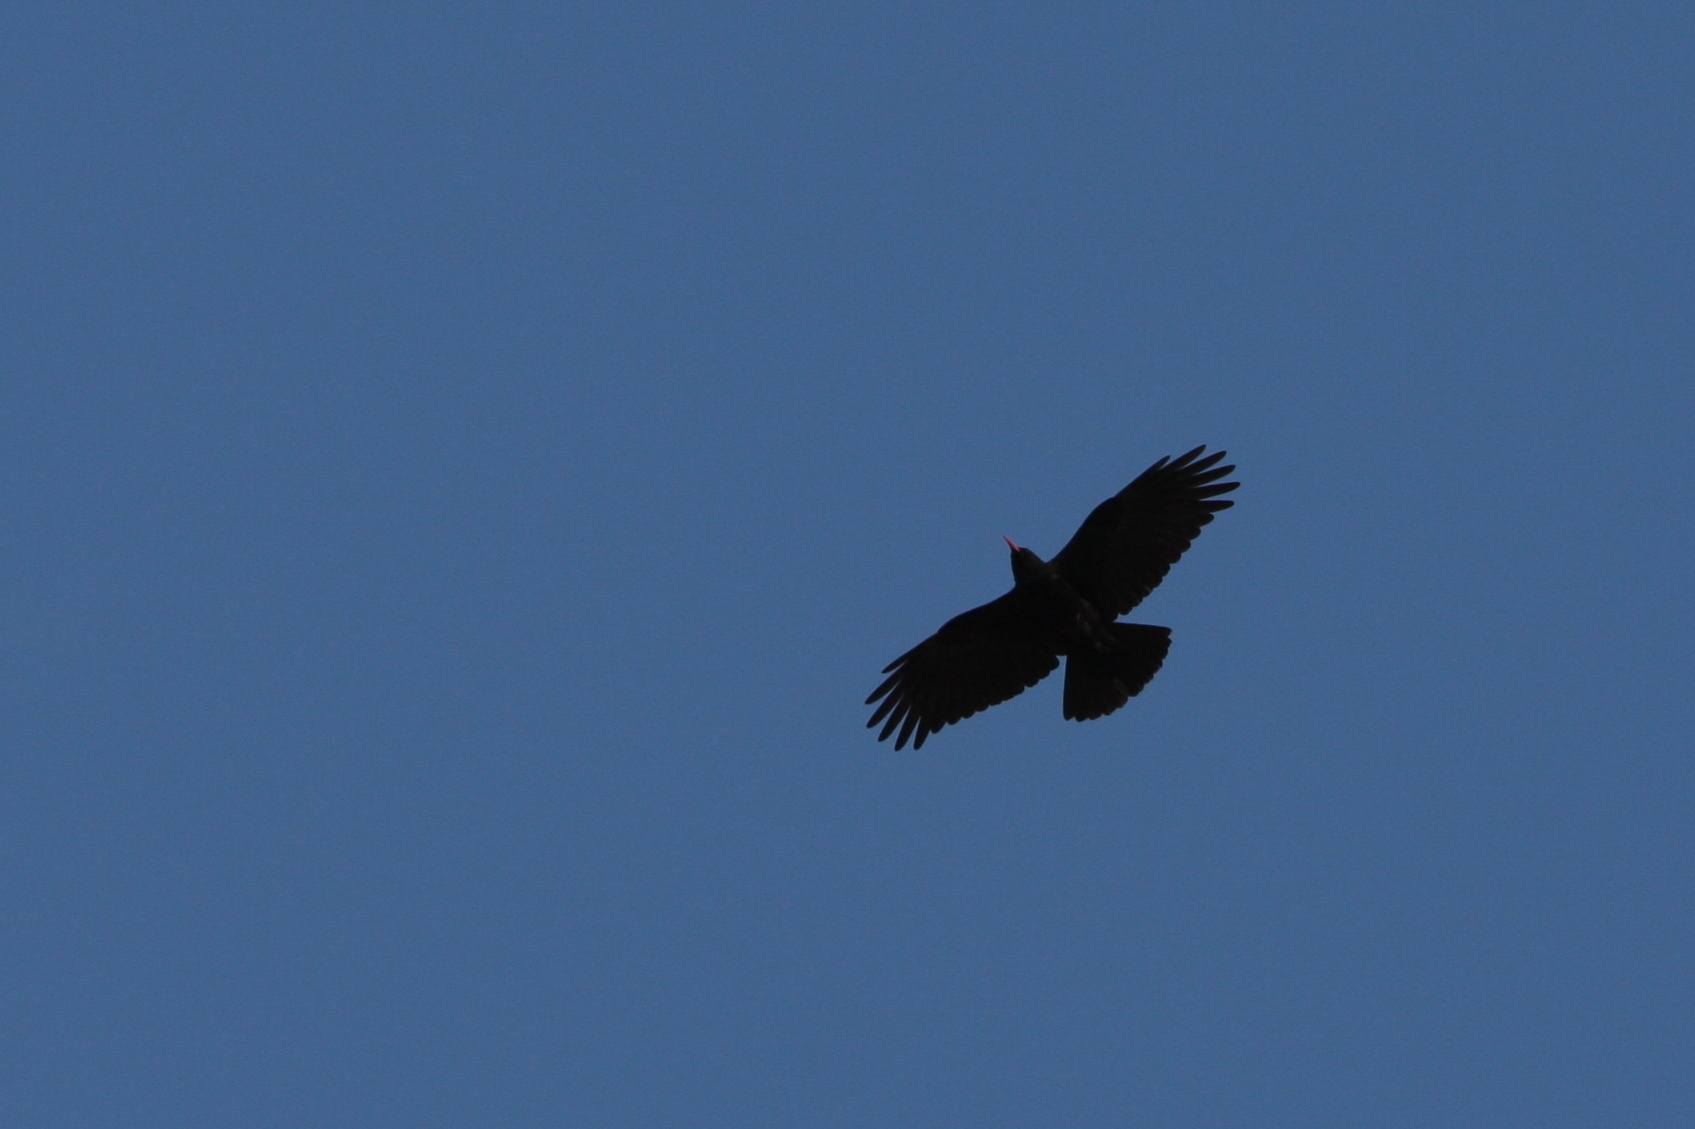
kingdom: Animalia
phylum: Chordata
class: Aves
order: Passeriformes
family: Corvidae
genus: Pyrrhocorax
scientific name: Pyrrhocorax pyrrhocorax
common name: Red-billed chough
